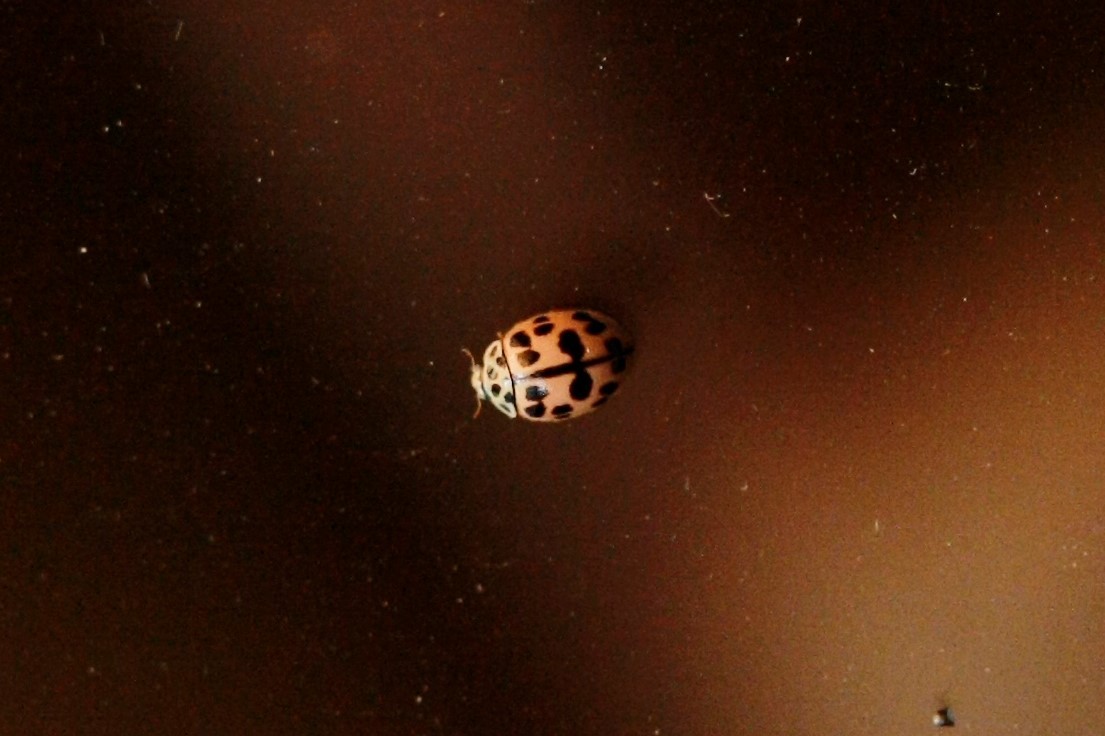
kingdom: Animalia
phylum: Arthropoda
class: Insecta
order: Coleoptera
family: Coccinellidae
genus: Oenopia
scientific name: Oenopia conglobata
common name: Ladybird beetle
